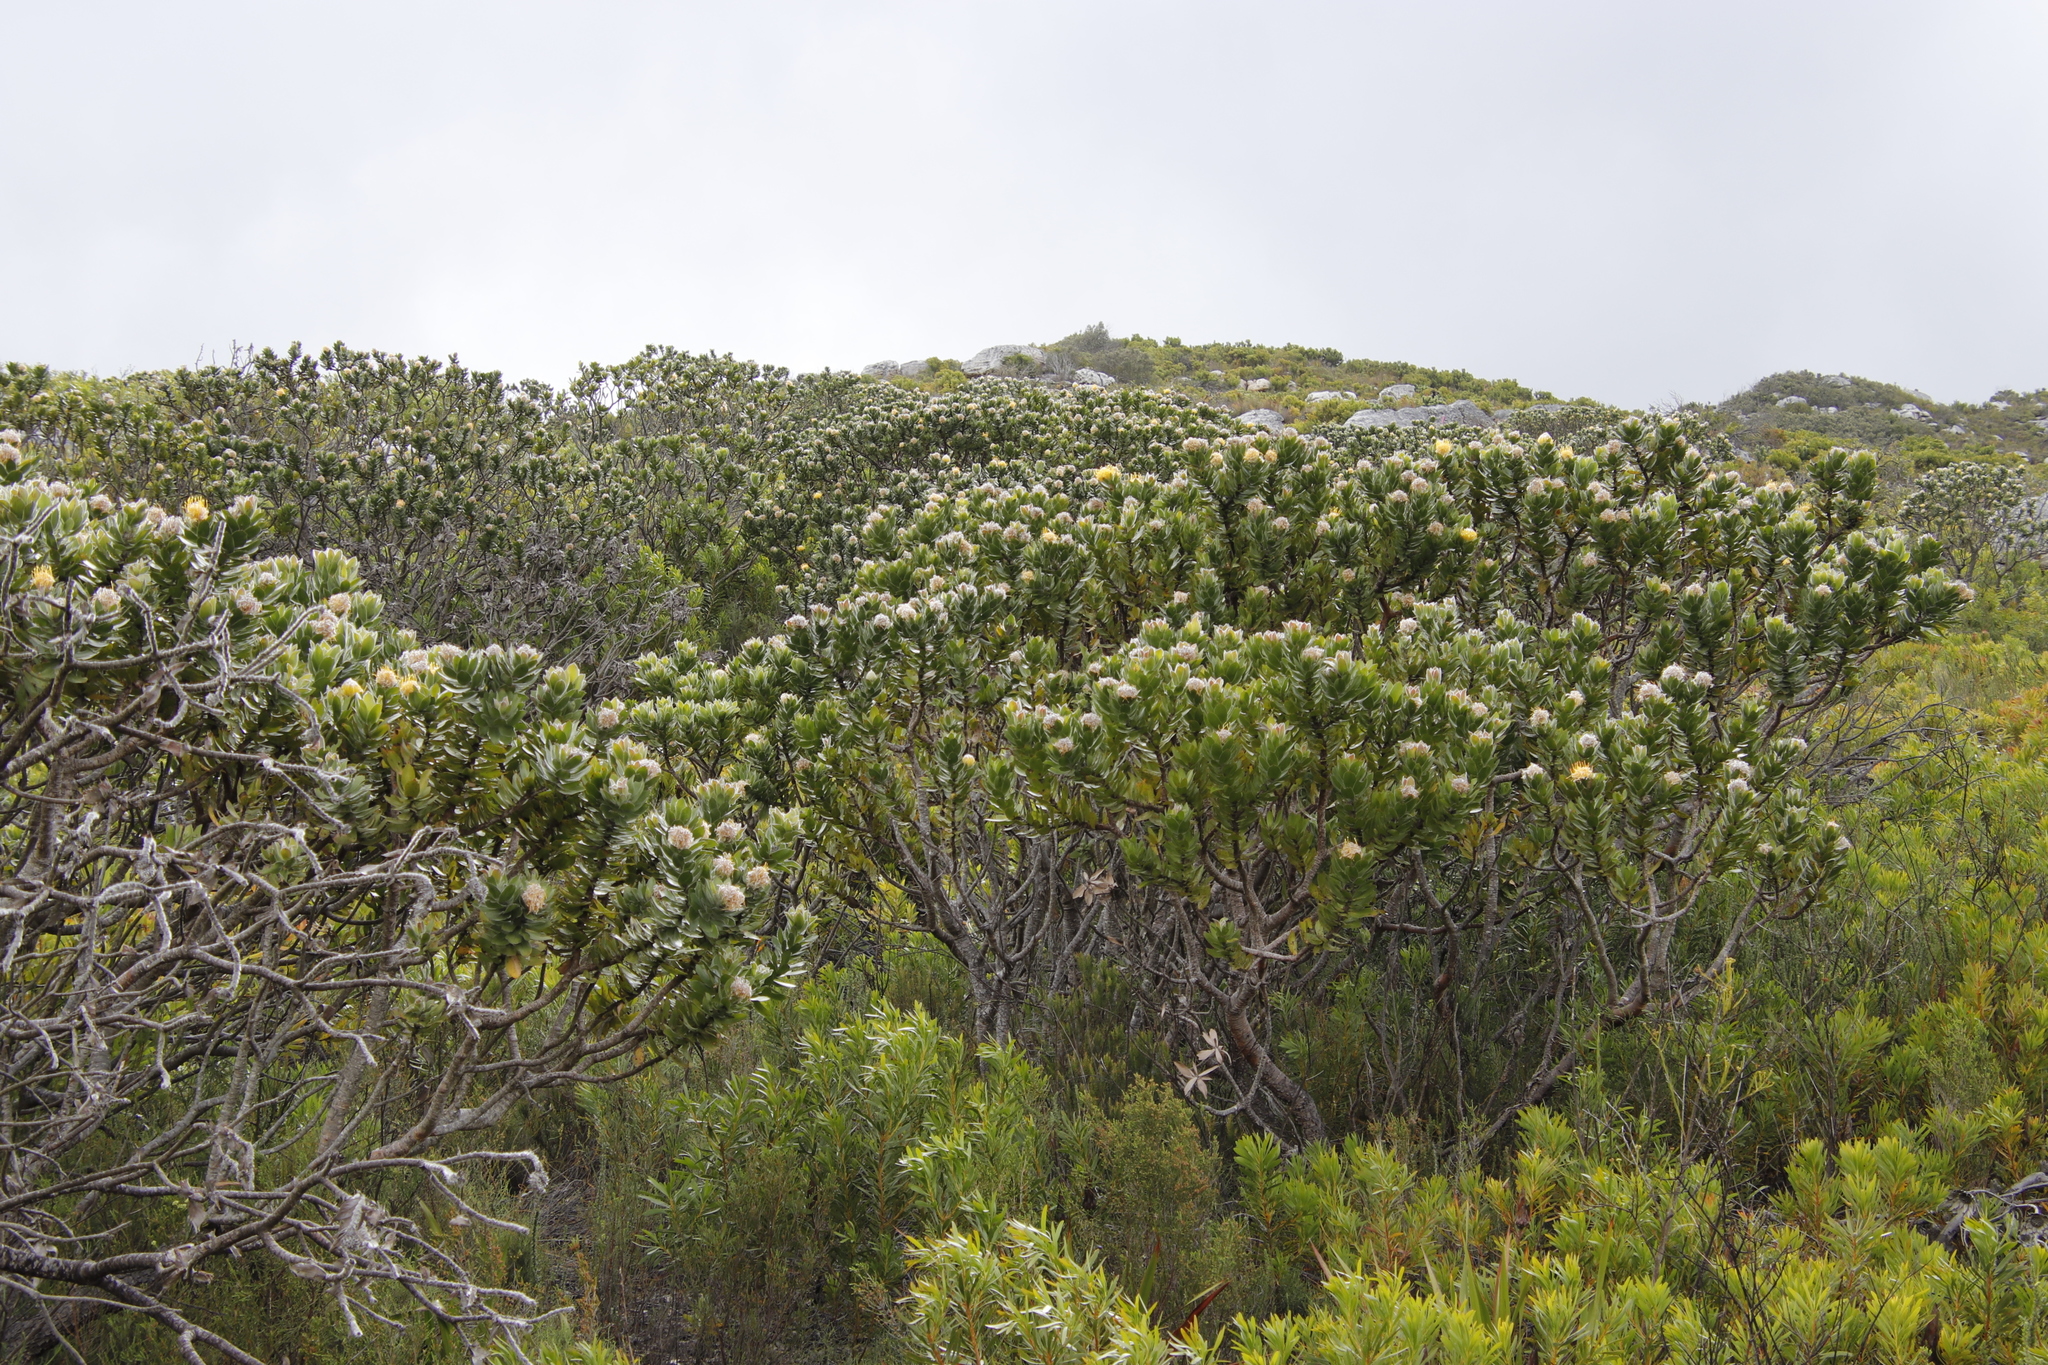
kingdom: Plantae
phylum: Tracheophyta
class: Magnoliopsida
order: Proteales
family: Proteaceae
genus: Leucospermum
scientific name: Leucospermum conocarpodendron
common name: Tree pincushion
